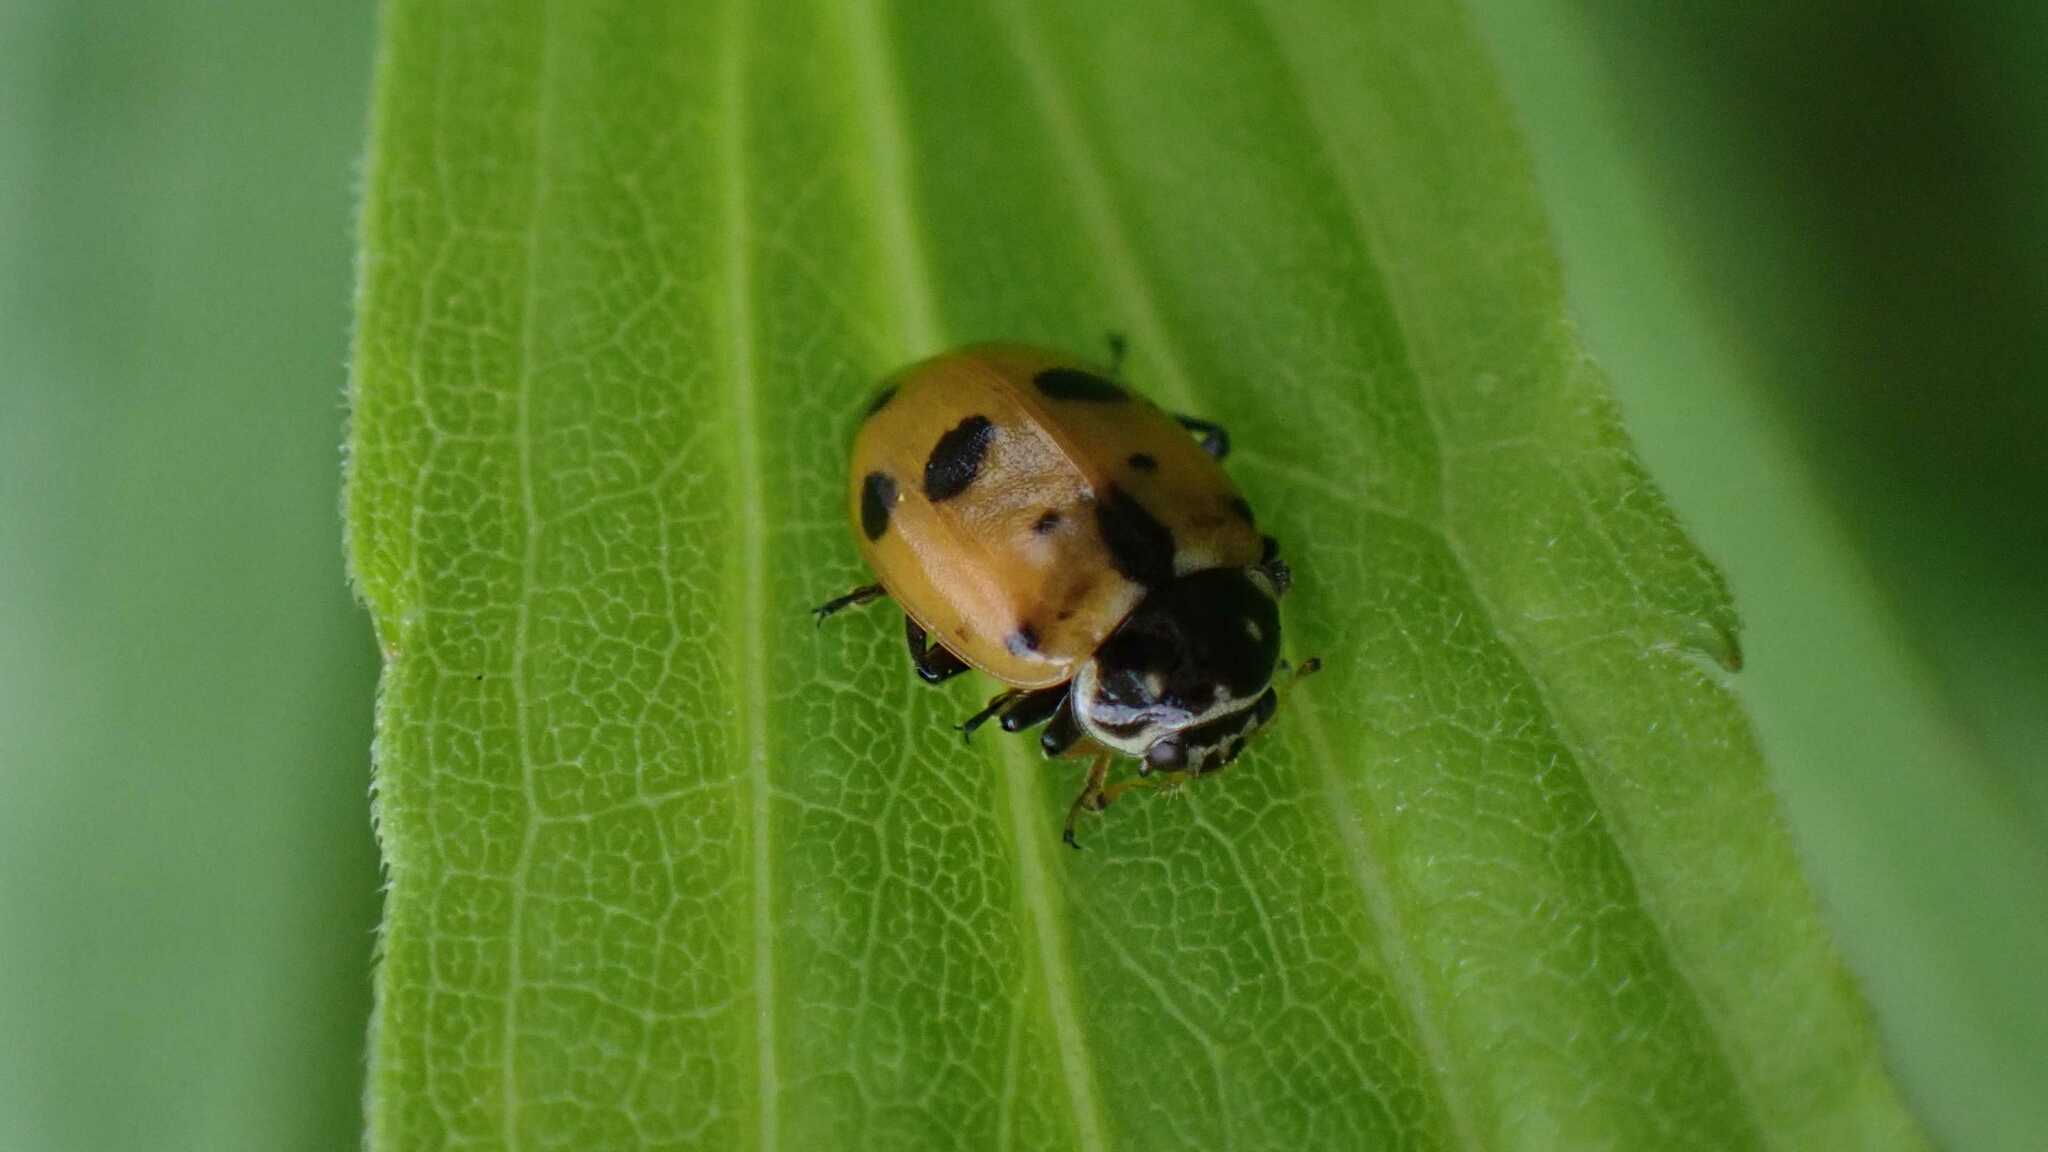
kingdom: Animalia
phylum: Arthropoda
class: Insecta
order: Coleoptera
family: Coccinellidae
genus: Hippodamia
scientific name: Hippodamia variegata
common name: Ladybird beetle
